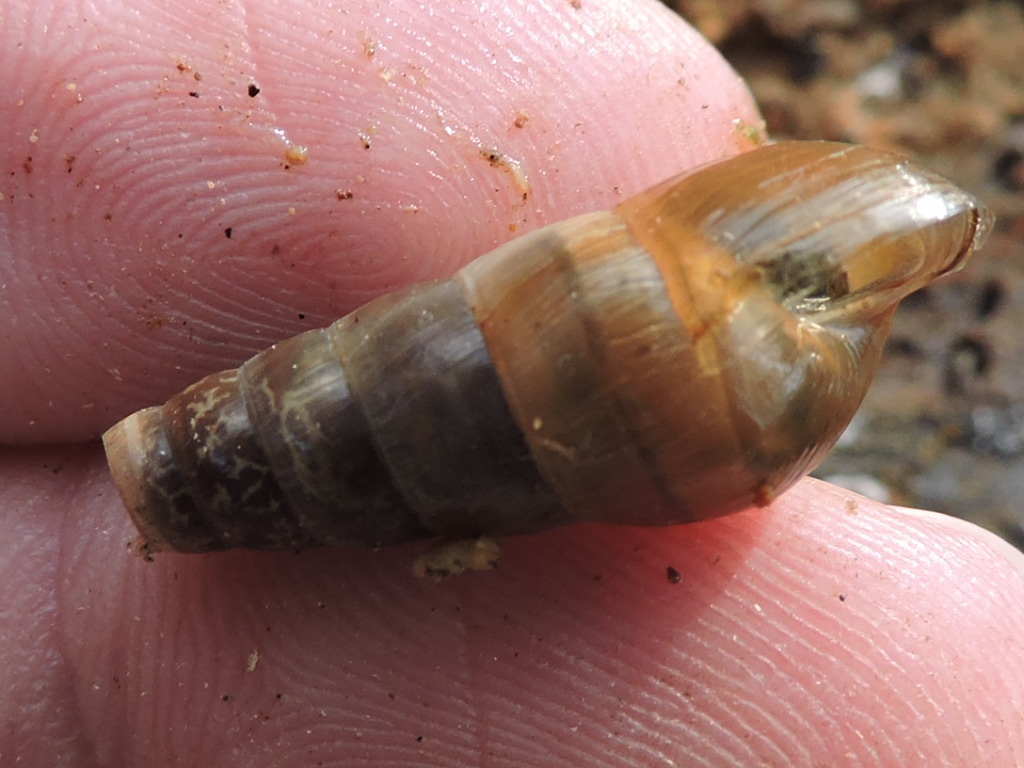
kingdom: Animalia
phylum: Mollusca
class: Gastropoda
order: Stylommatophora
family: Achatinidae
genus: Rumina
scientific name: Rumina decollata
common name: Decollate snail
